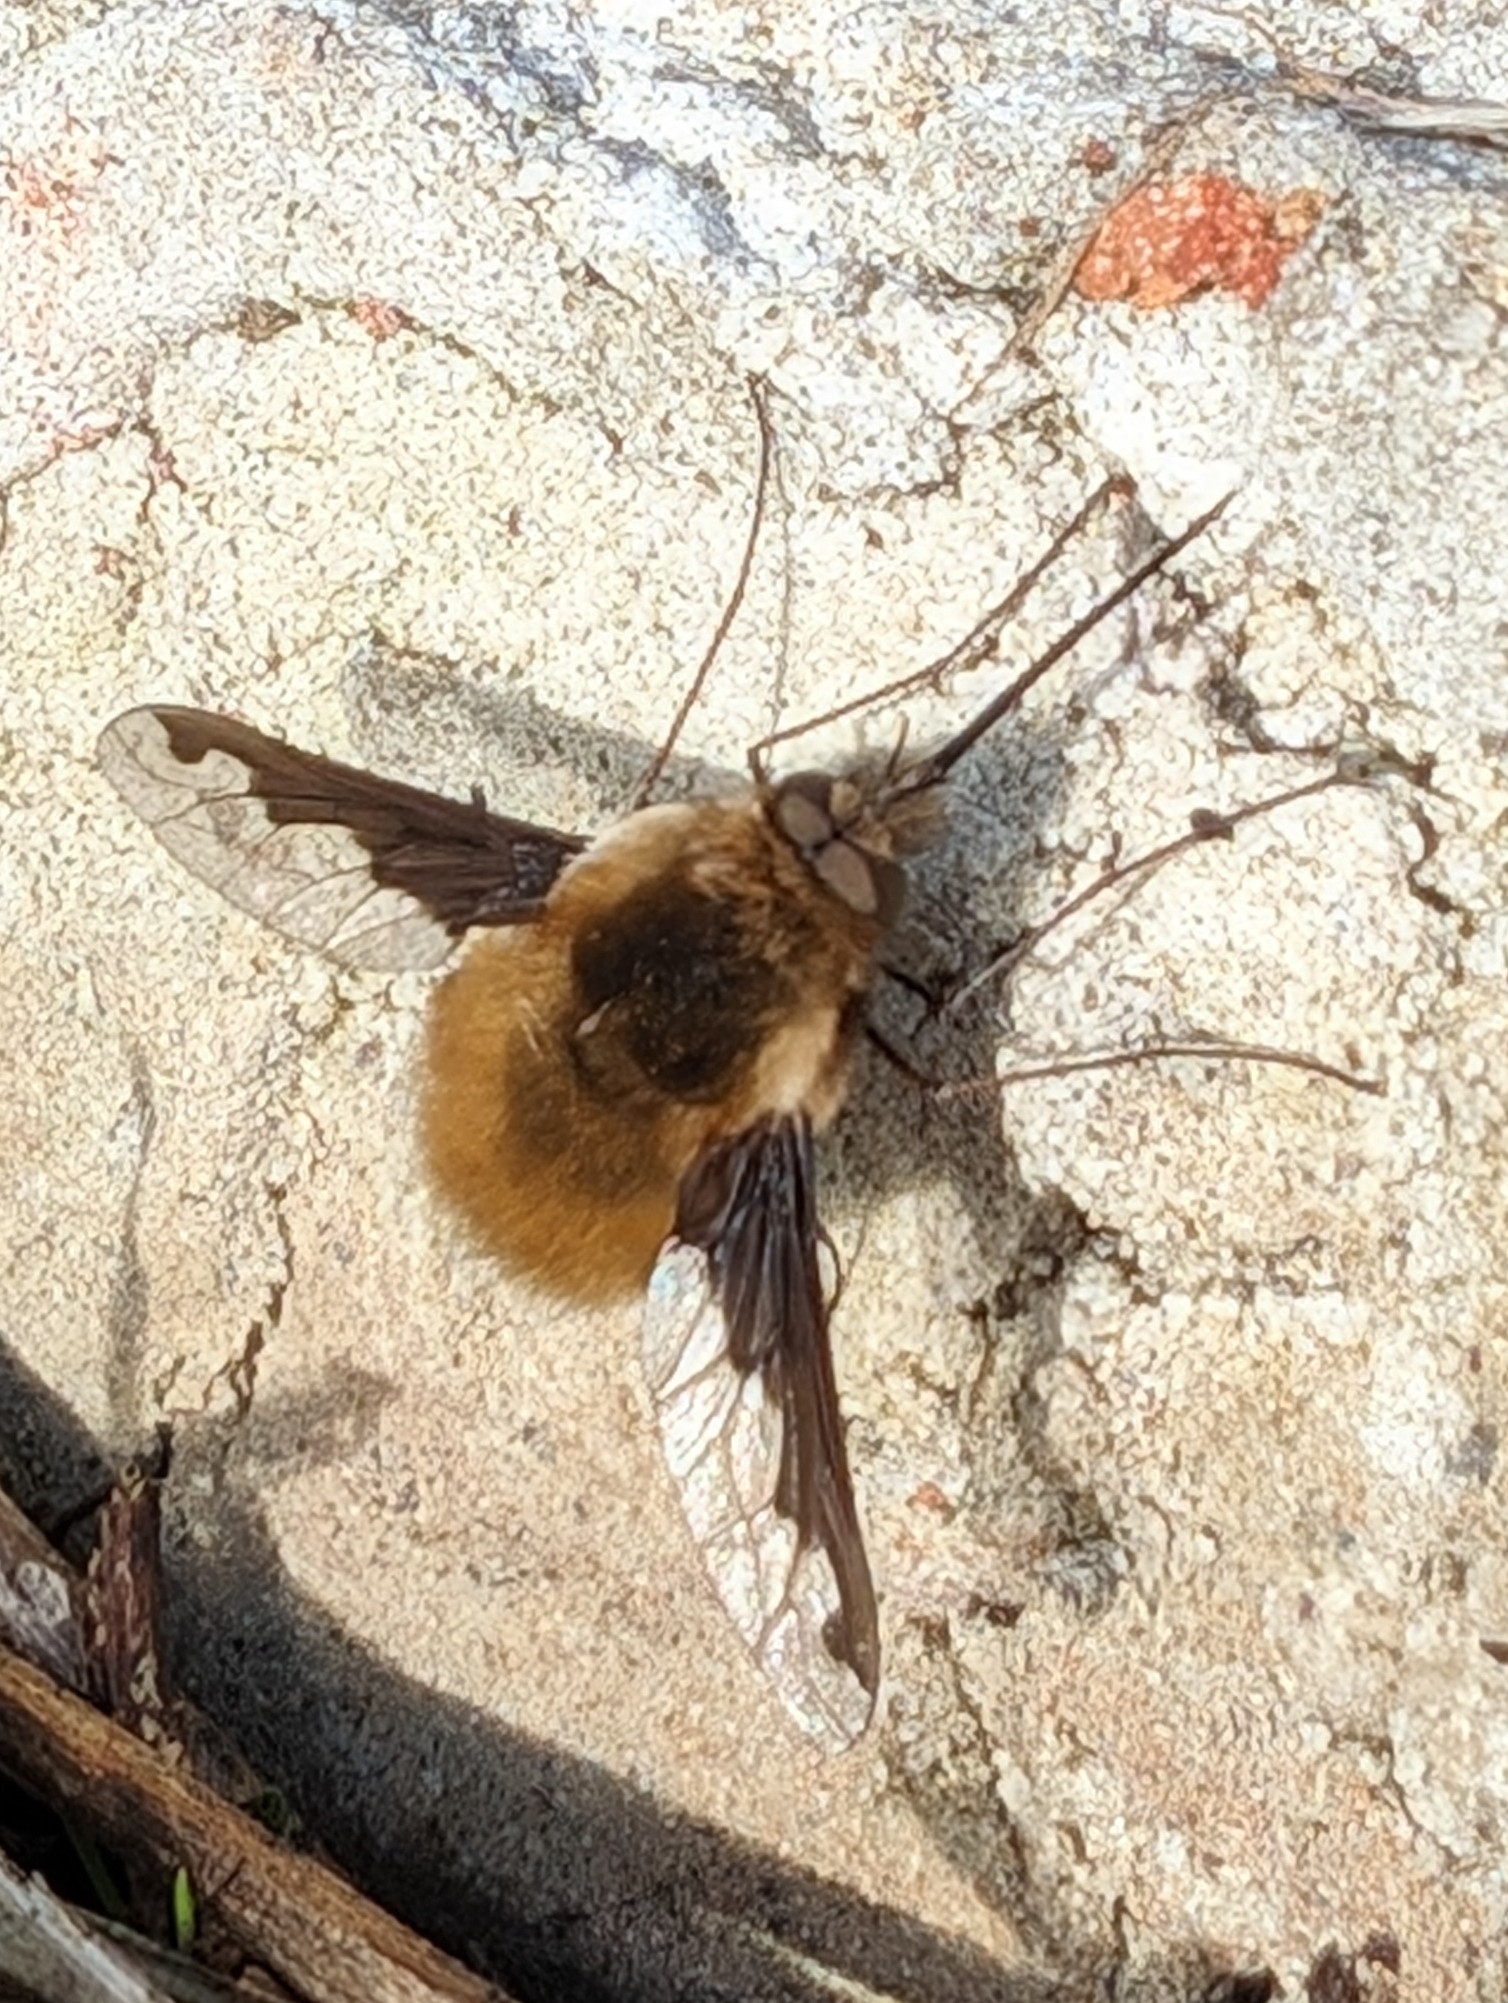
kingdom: Animalia
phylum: Arthropoda
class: Insecta
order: Diptera
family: Bombyliidae
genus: Bombylius
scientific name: Bombylius major
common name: Bee fly
